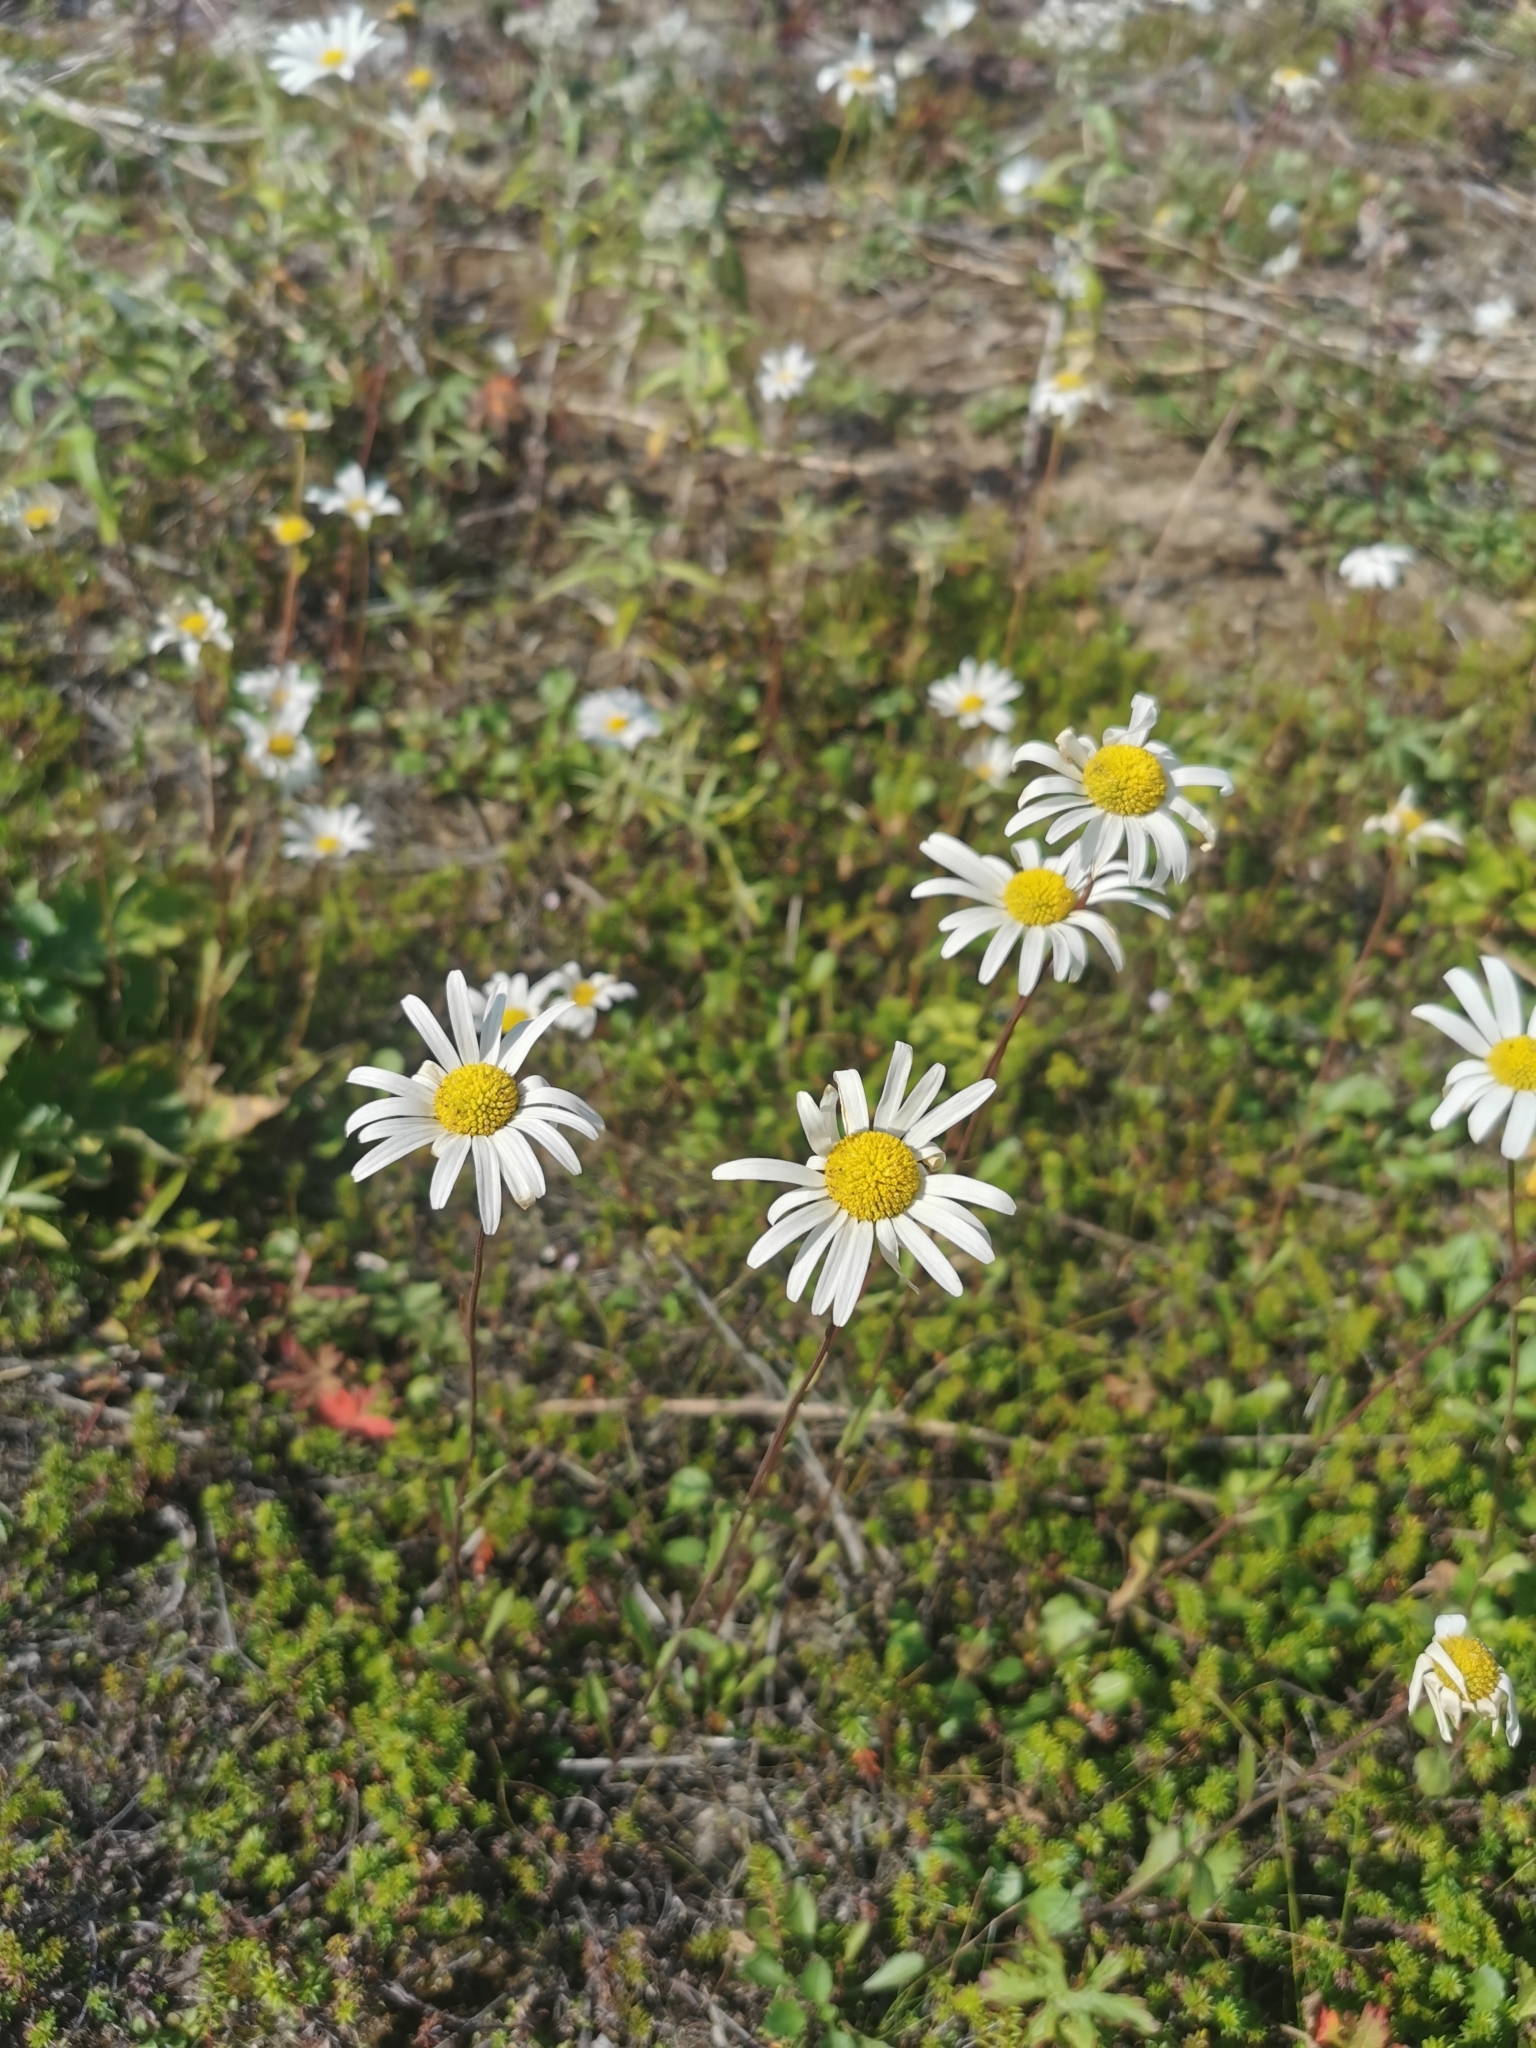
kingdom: Plantae
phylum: Tracheophyta
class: Magnoliopsida
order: Asterales
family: Asteraceae
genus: Arctanthemum
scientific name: Arctanthemum arcticum
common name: Arctic daisy
